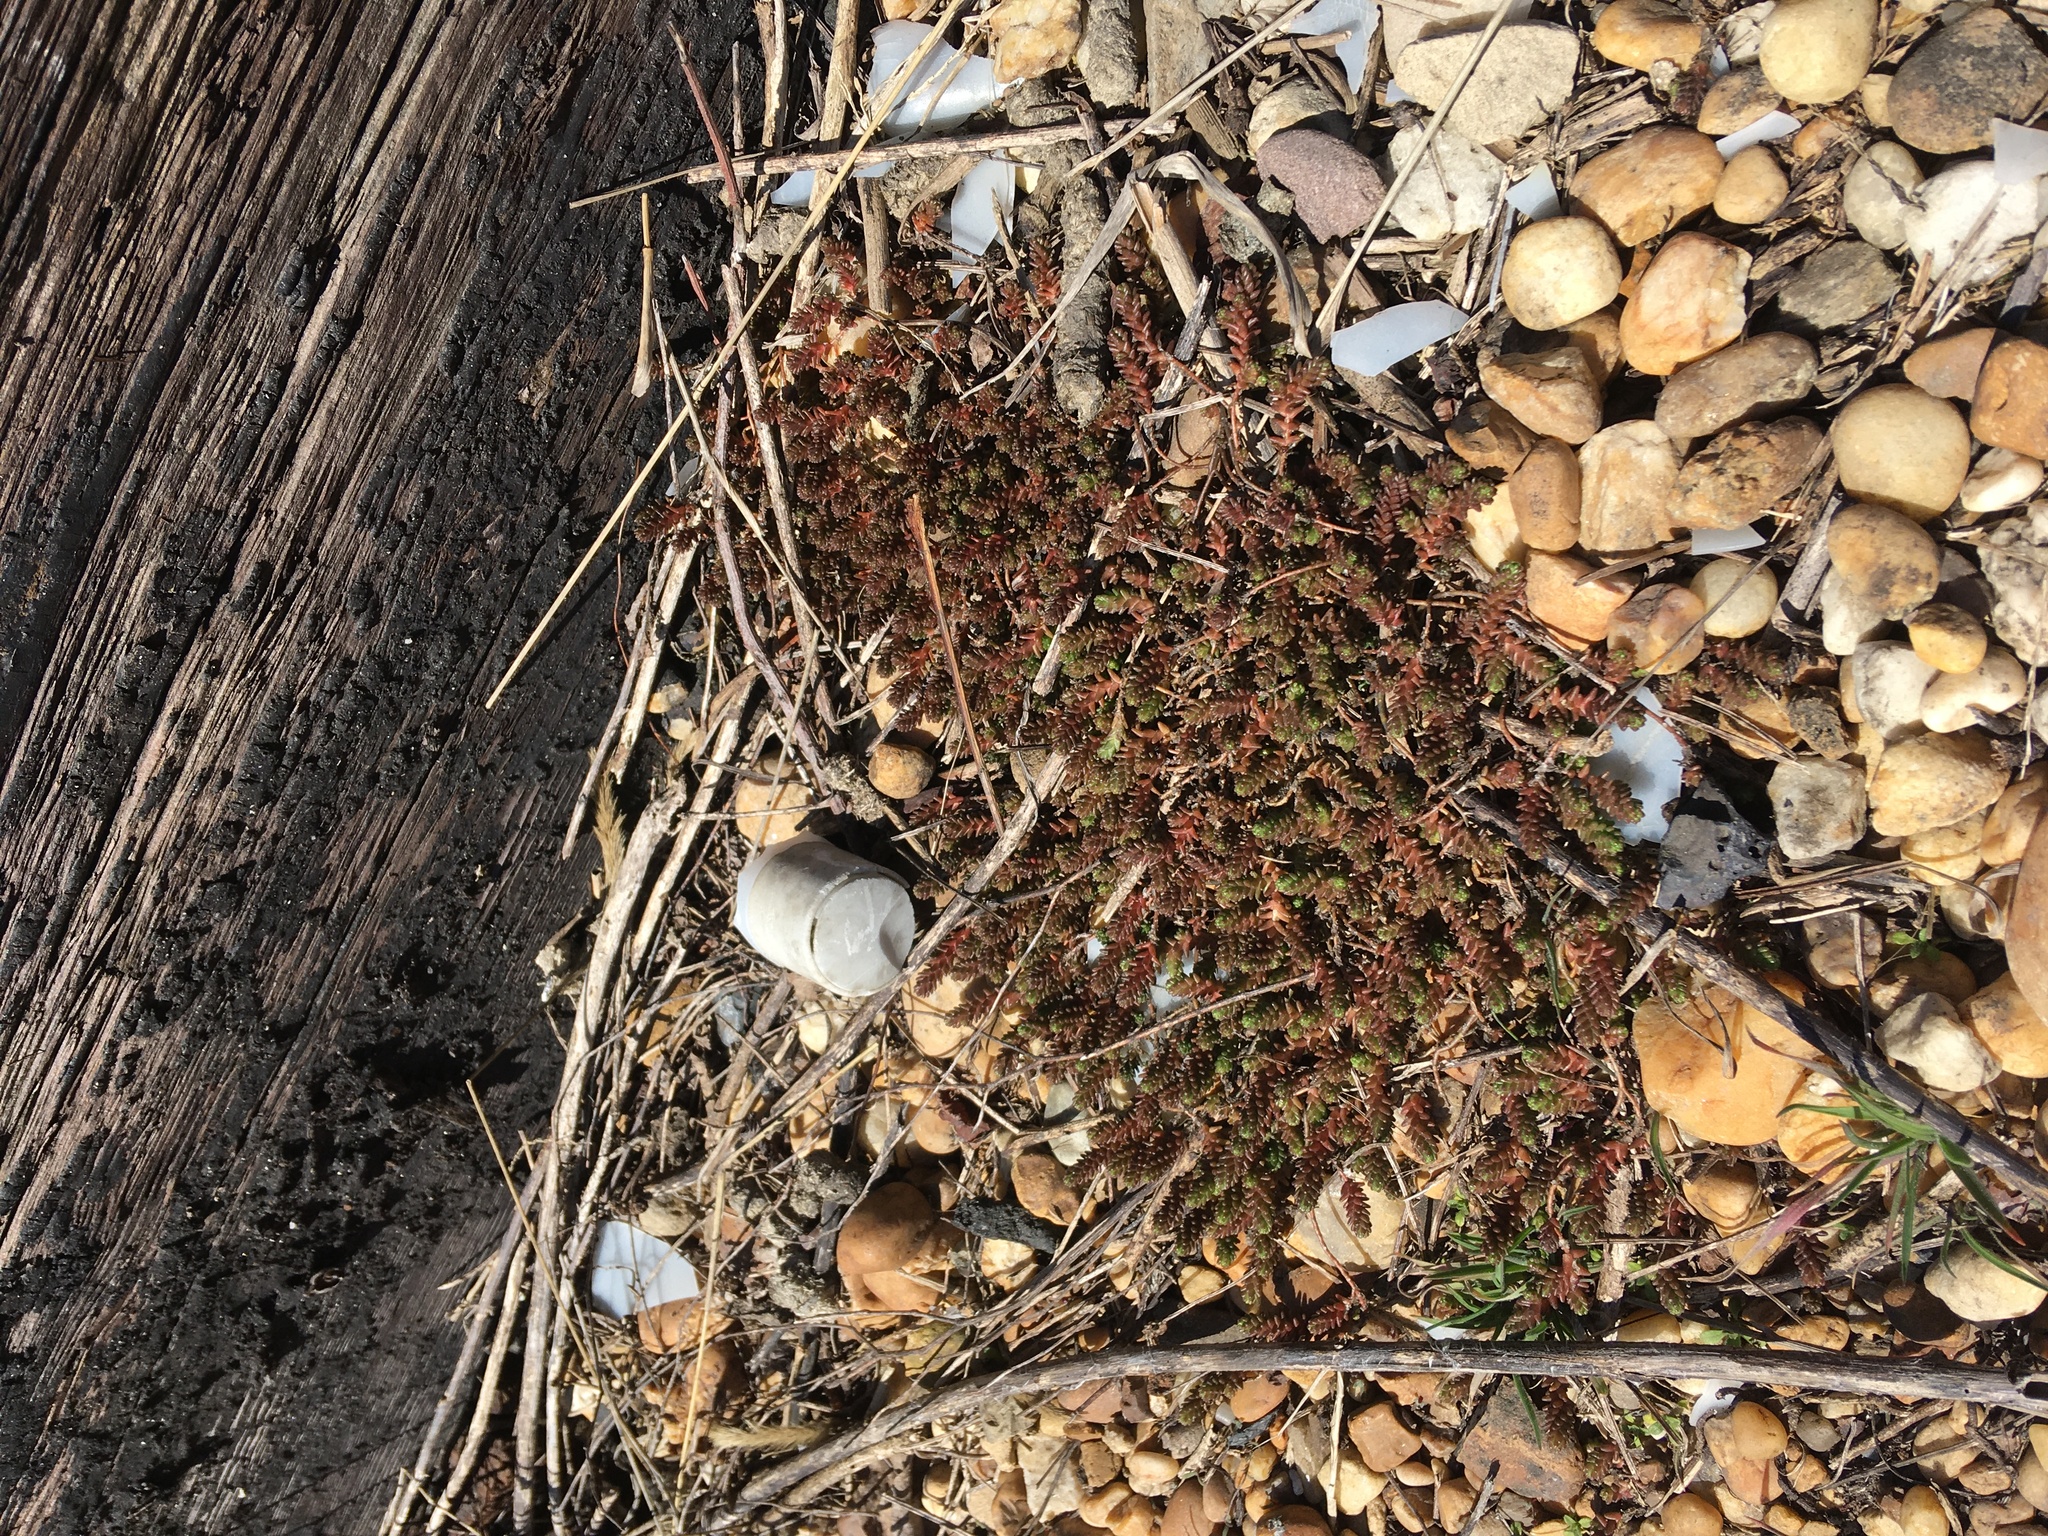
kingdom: Plantae
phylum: Tracheophyta
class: Magnoliopsida
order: Saxifragales
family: Crassulaceae
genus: Sedum
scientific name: Sedum acre
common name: Biting stonecrop
